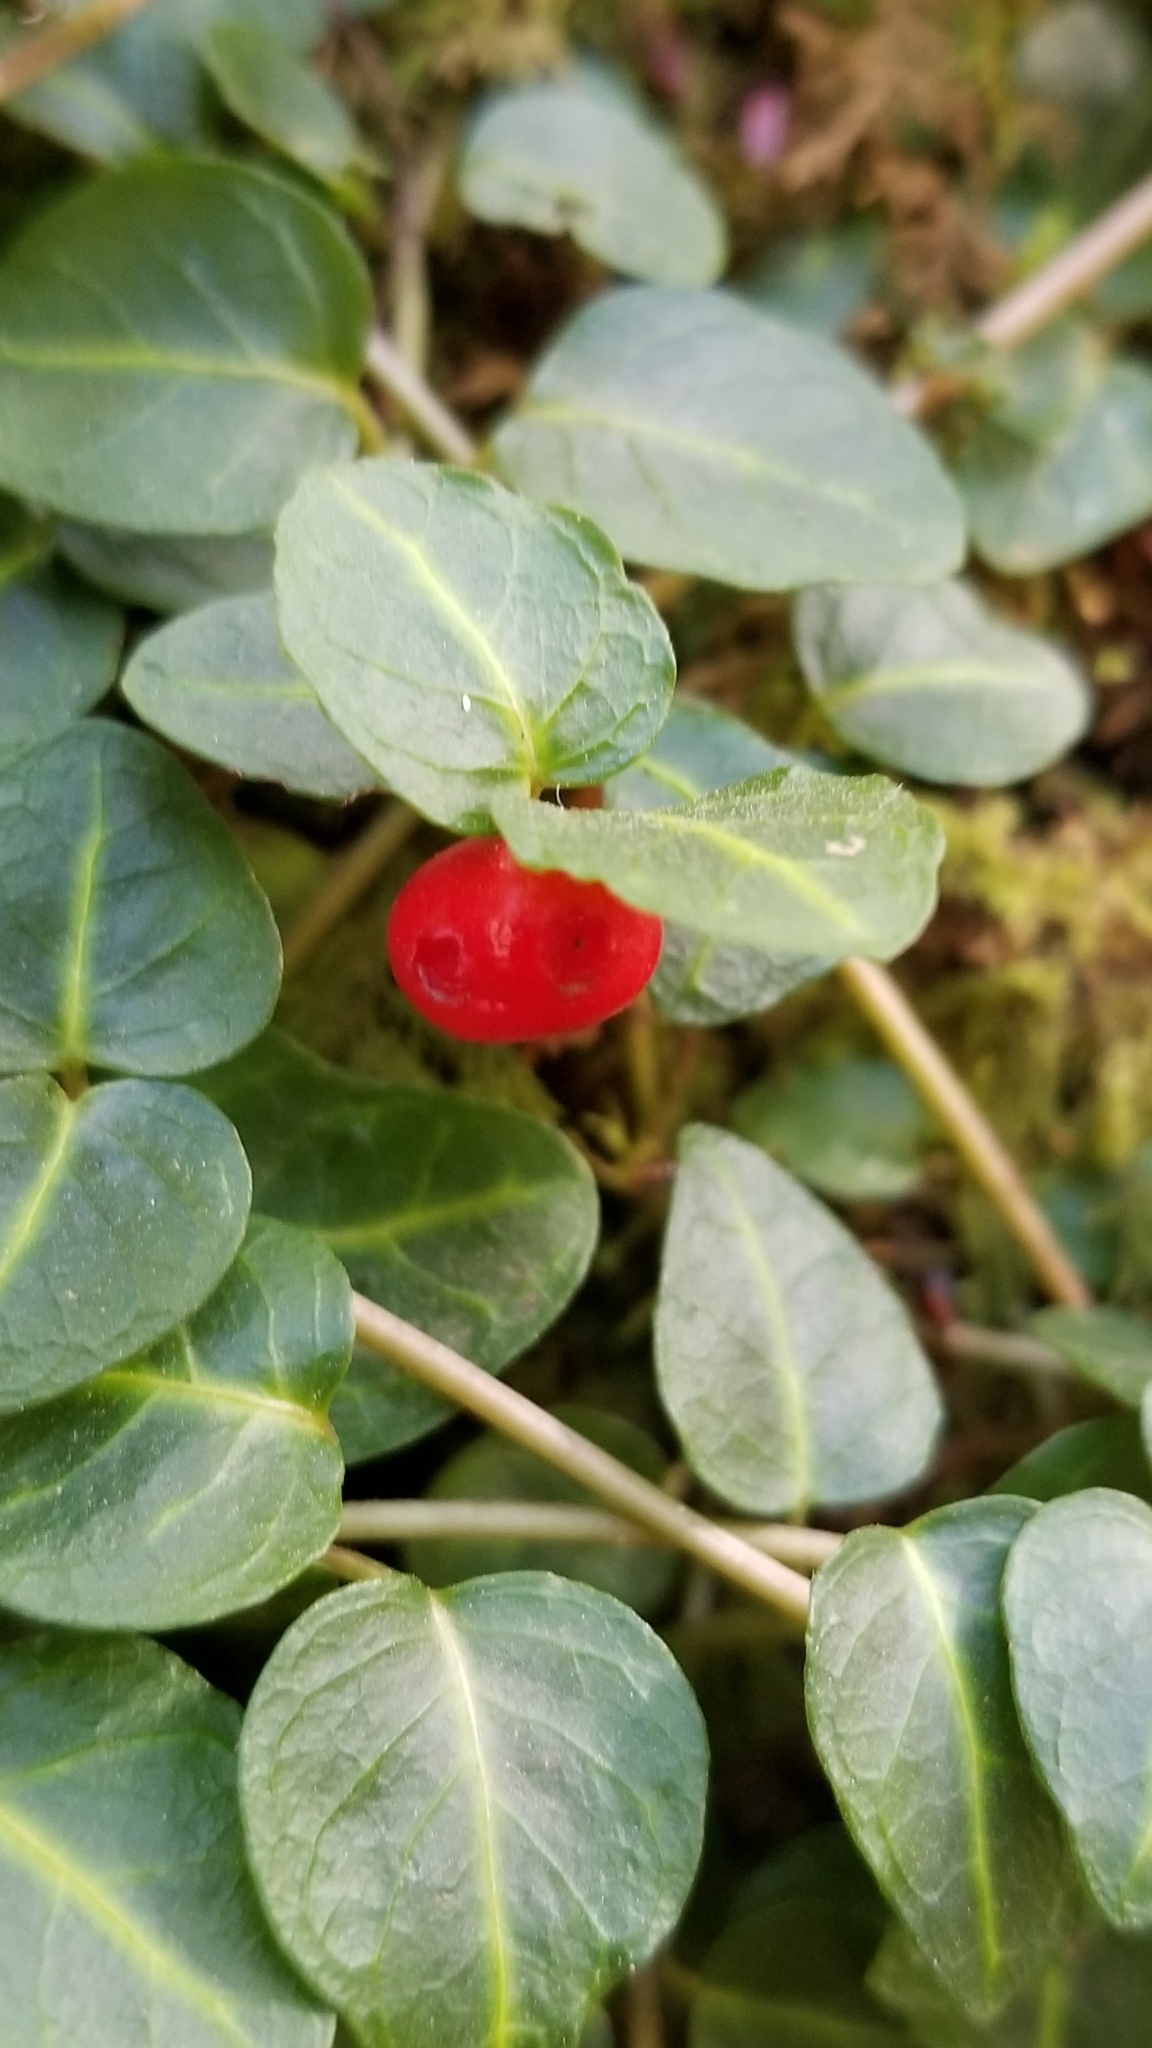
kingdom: Plantae
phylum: Tracheophyta
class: Magnoliopsida
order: Gentianales
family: Rubiaceae
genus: Mitchella
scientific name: Mitchella repens
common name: Partridge-berry
